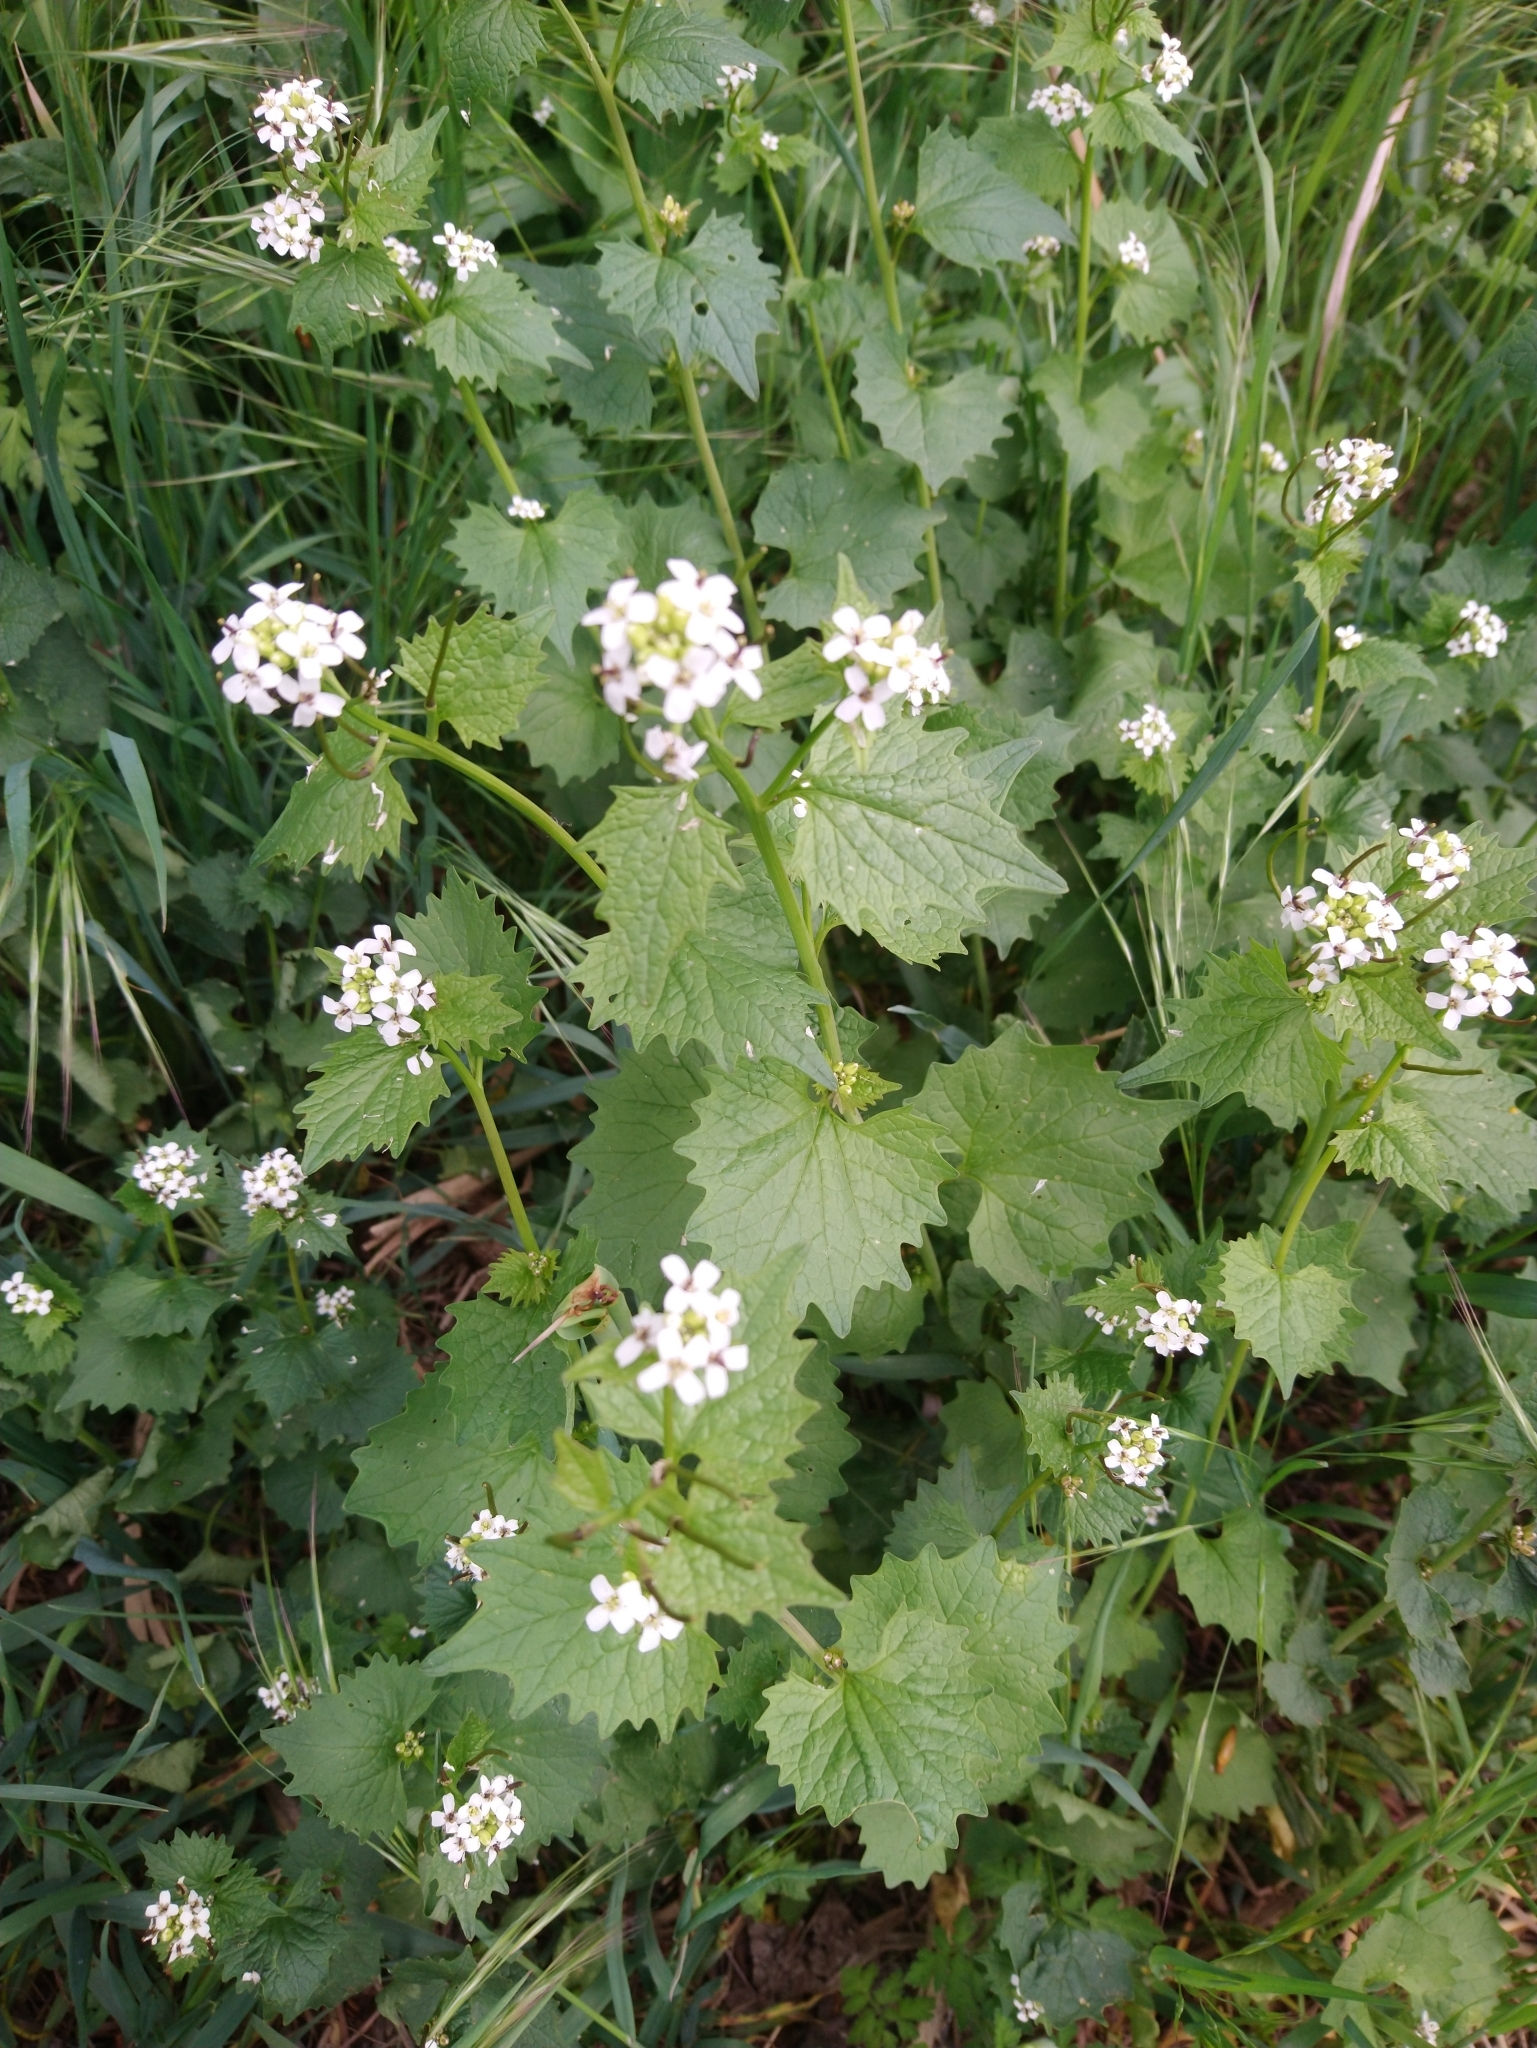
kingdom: Plantae
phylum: Tracheophyta
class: Magnoliopsida
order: Brassicales
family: Brassicaceae
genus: Alliaria
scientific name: Alliaria petiolata
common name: Garlic mustard
